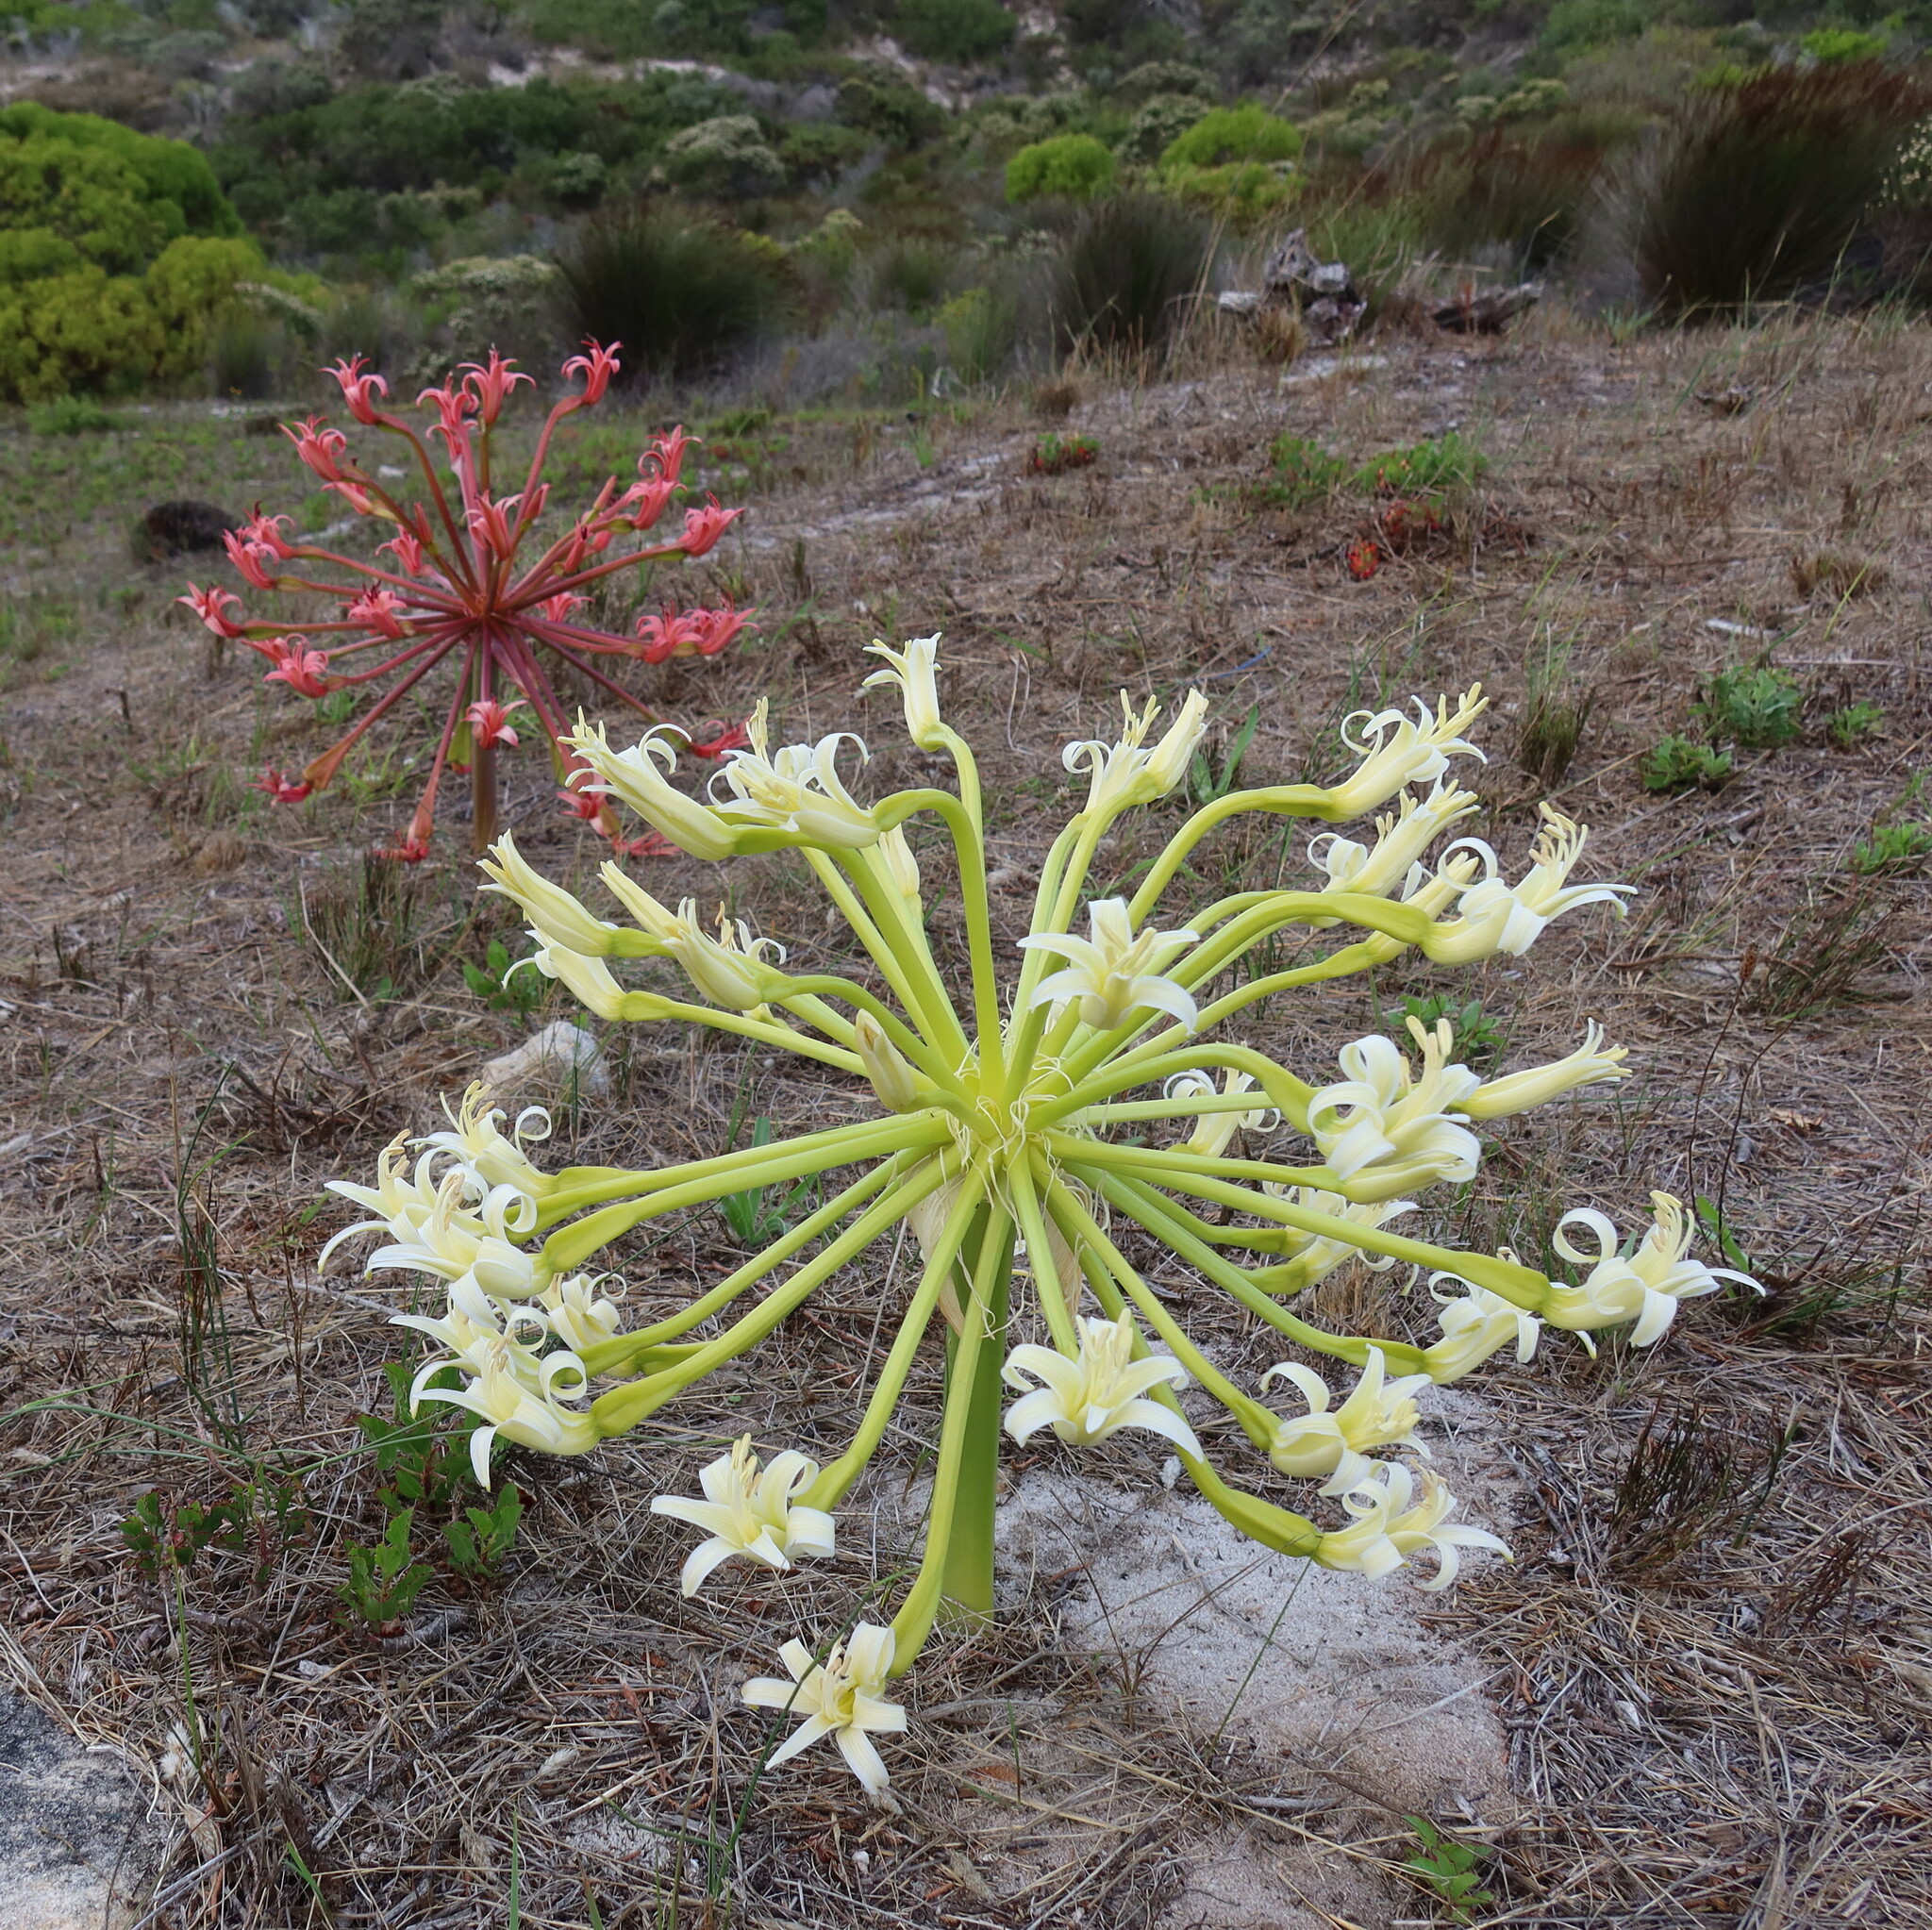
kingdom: Plantae
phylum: Tracheophyta
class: Liliopsida
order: Asparagales
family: Amaryllidaceae
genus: Brunsvigia
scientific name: Brunsvigia orientalis
